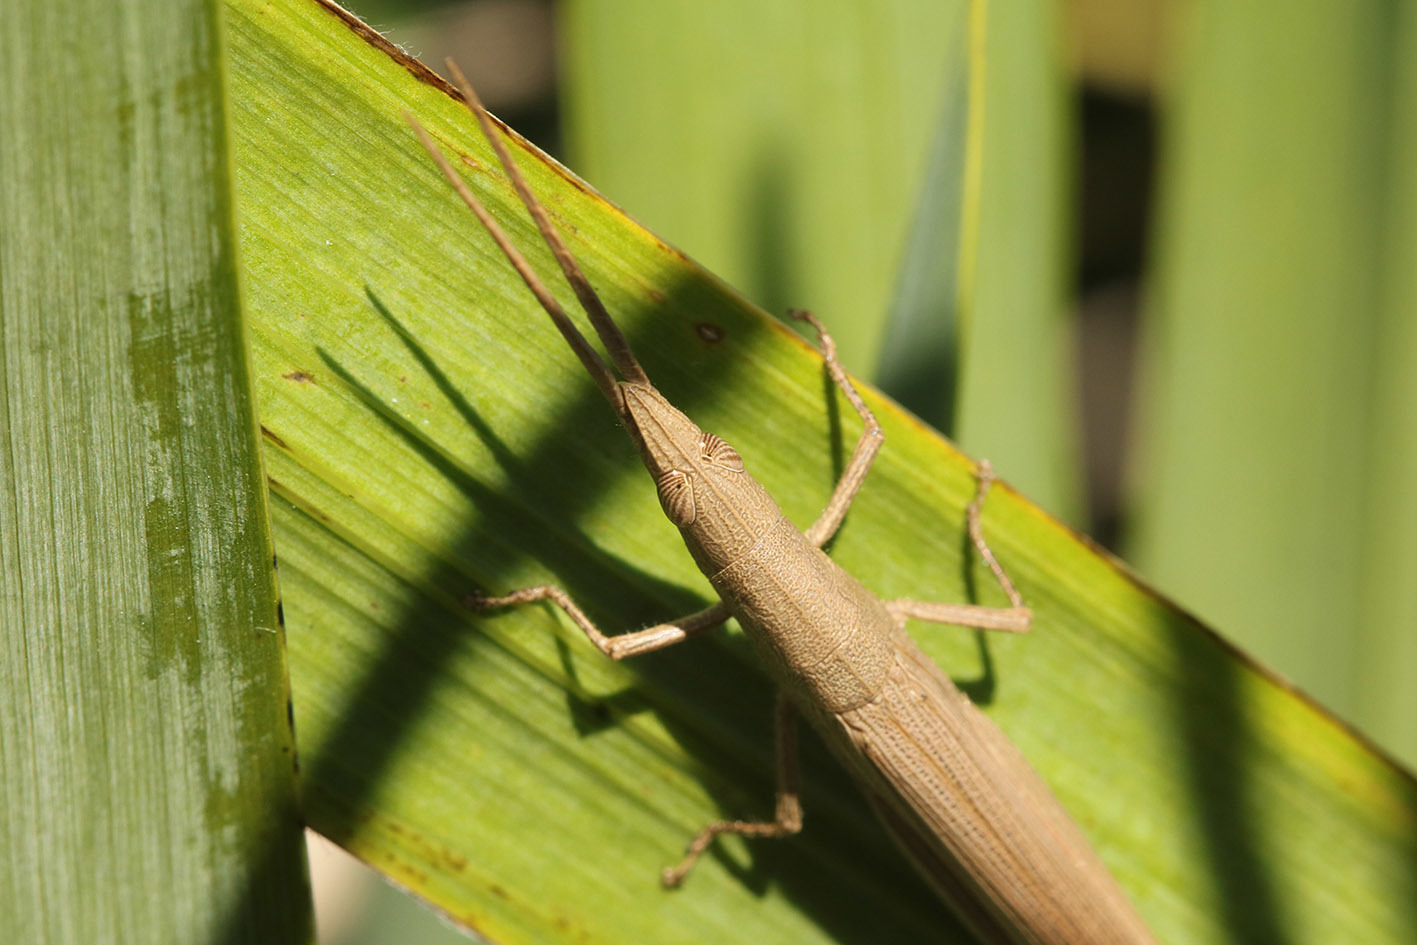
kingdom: Animalia
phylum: Arthropoda
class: Insecta
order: Orthoptera
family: Acrididae
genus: Haroldgrantia
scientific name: Haroldgrantia lignosa
